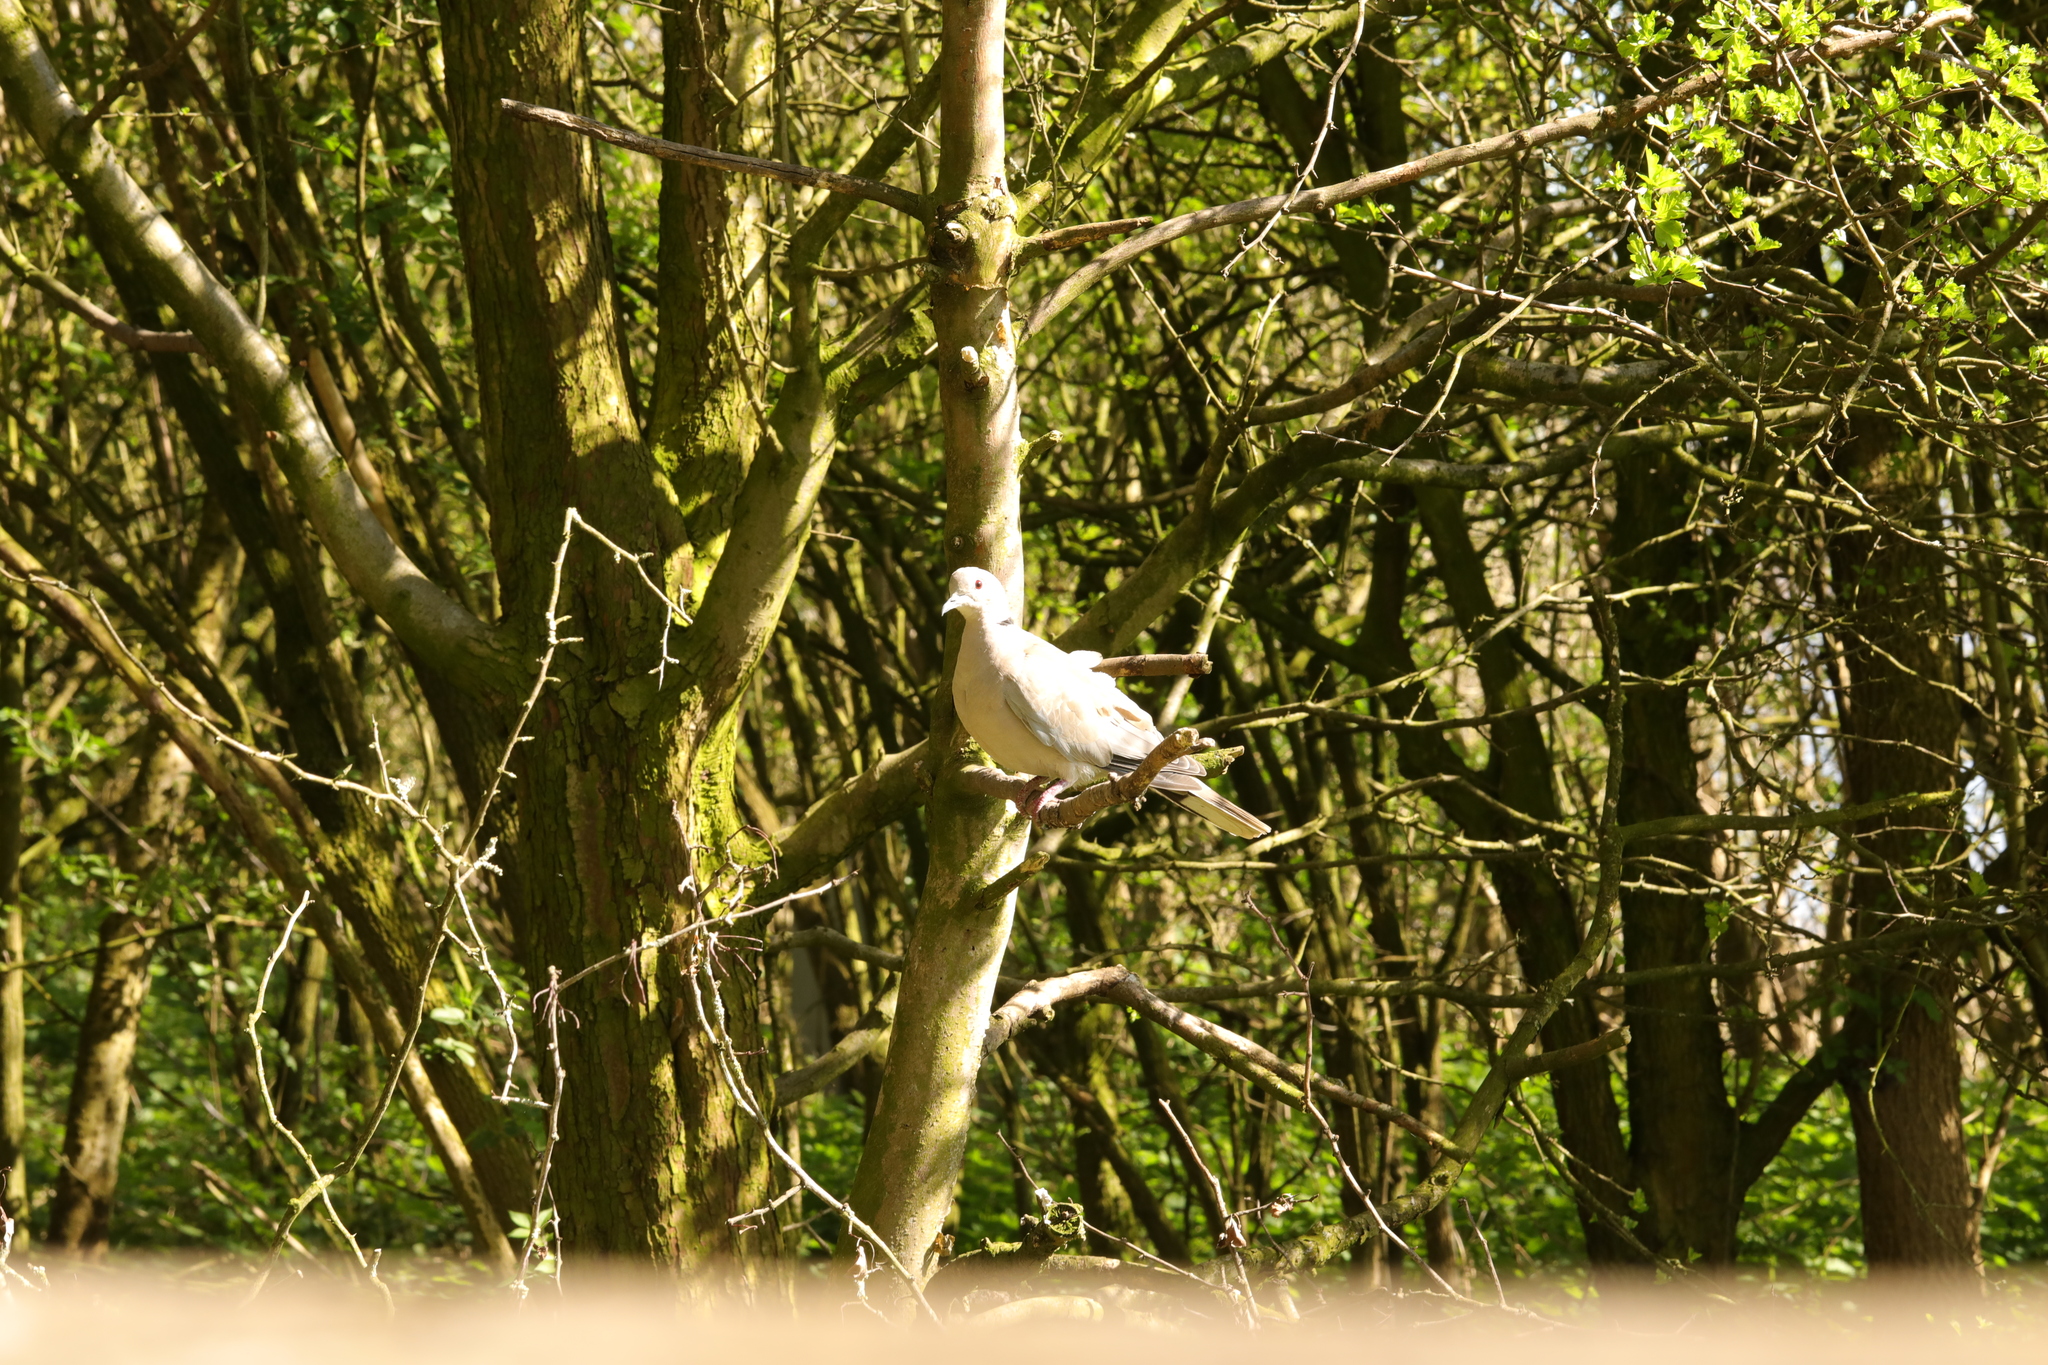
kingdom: Animalia
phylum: Chordata
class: Aves
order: Columbiformes
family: Columbidae
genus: Streptopelia
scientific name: Streptopelia decaocto
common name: Eurasian collared dove
